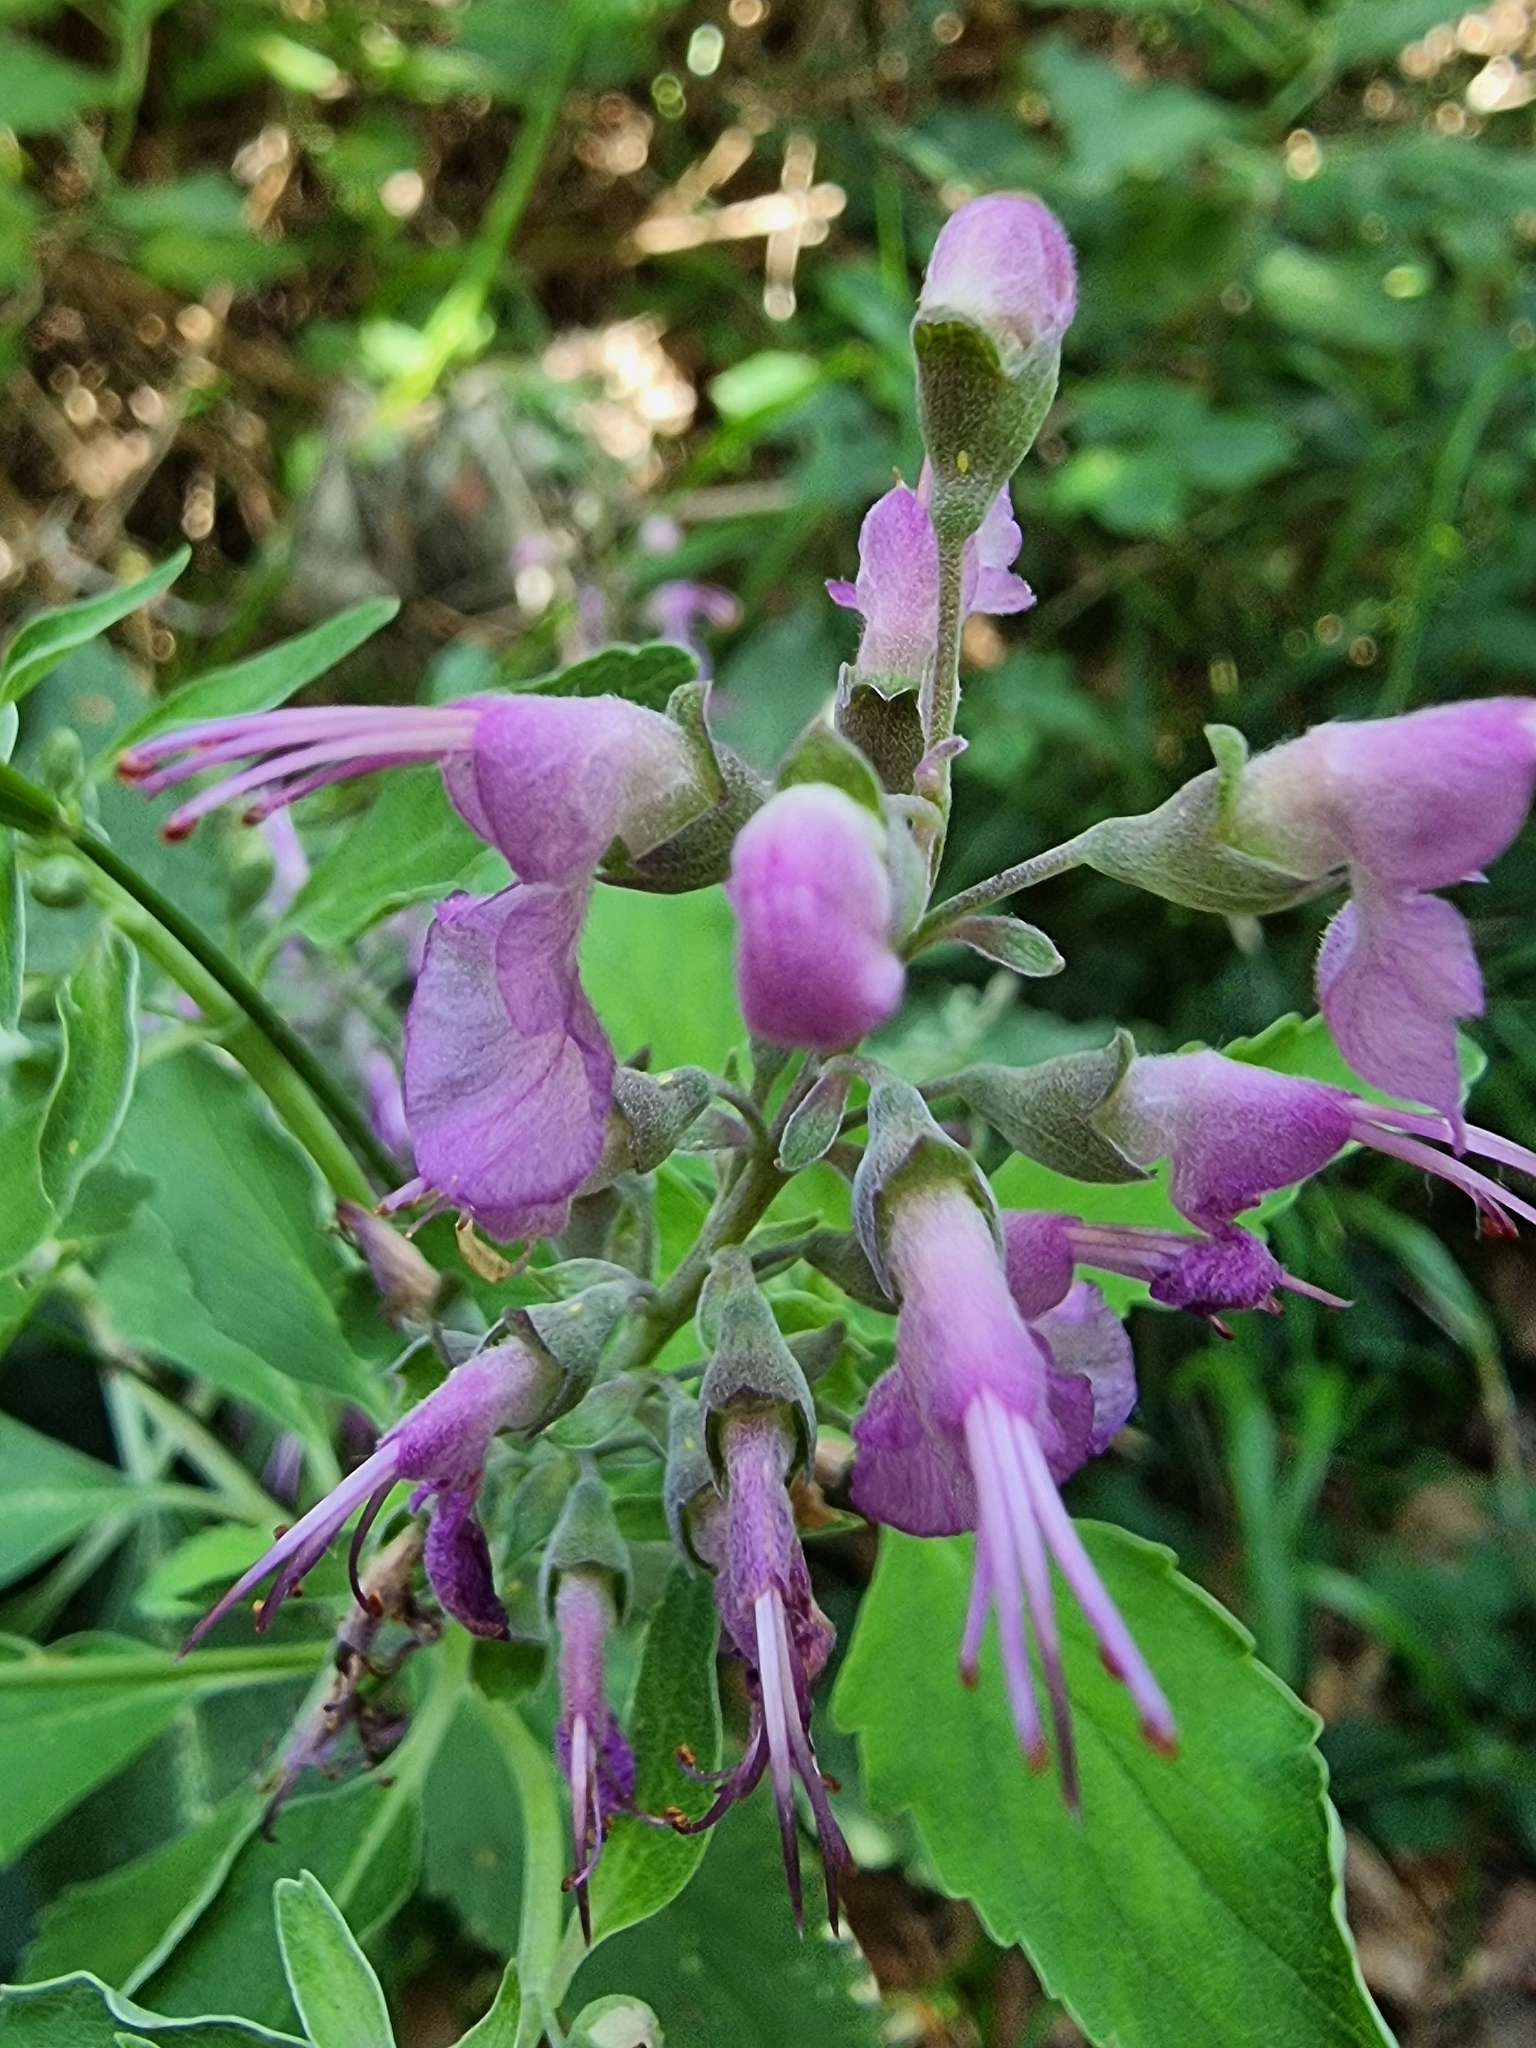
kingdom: Plantae
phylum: Tracheophyta
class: Magnoliopsida
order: Lamiales
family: Lamiaceae
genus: Teucrium
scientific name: Teucrium betonicum
